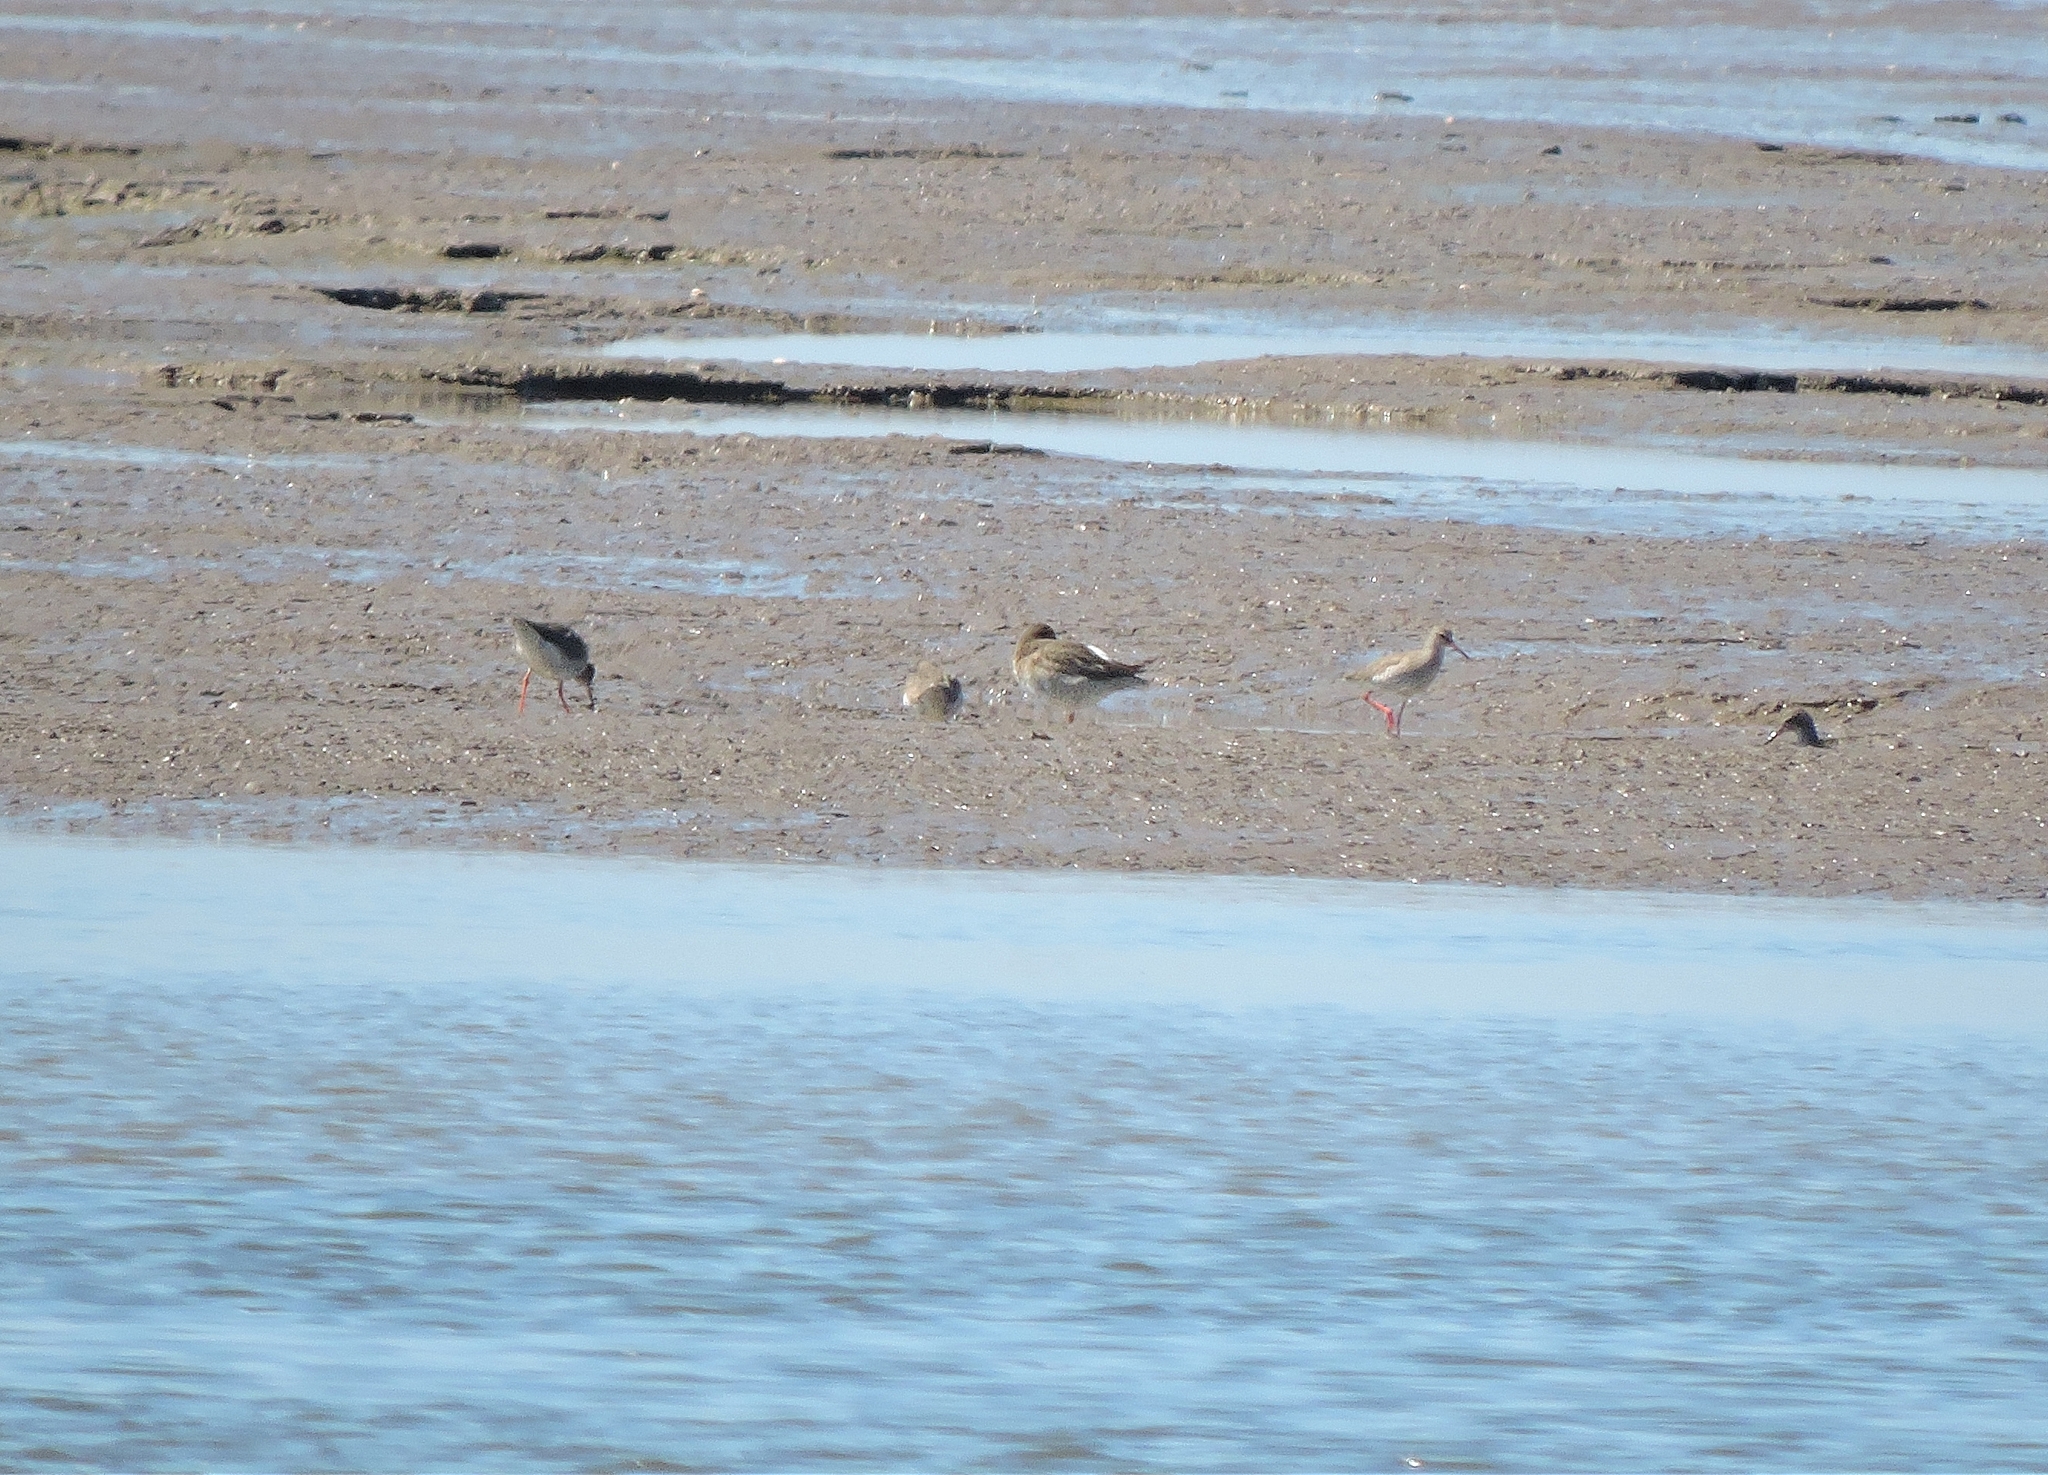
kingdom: Animalia
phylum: Chordata
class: Aves
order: Charadriiformes
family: Scolopacidae
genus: Tringa
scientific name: Tringa totanus
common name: Common redshank
